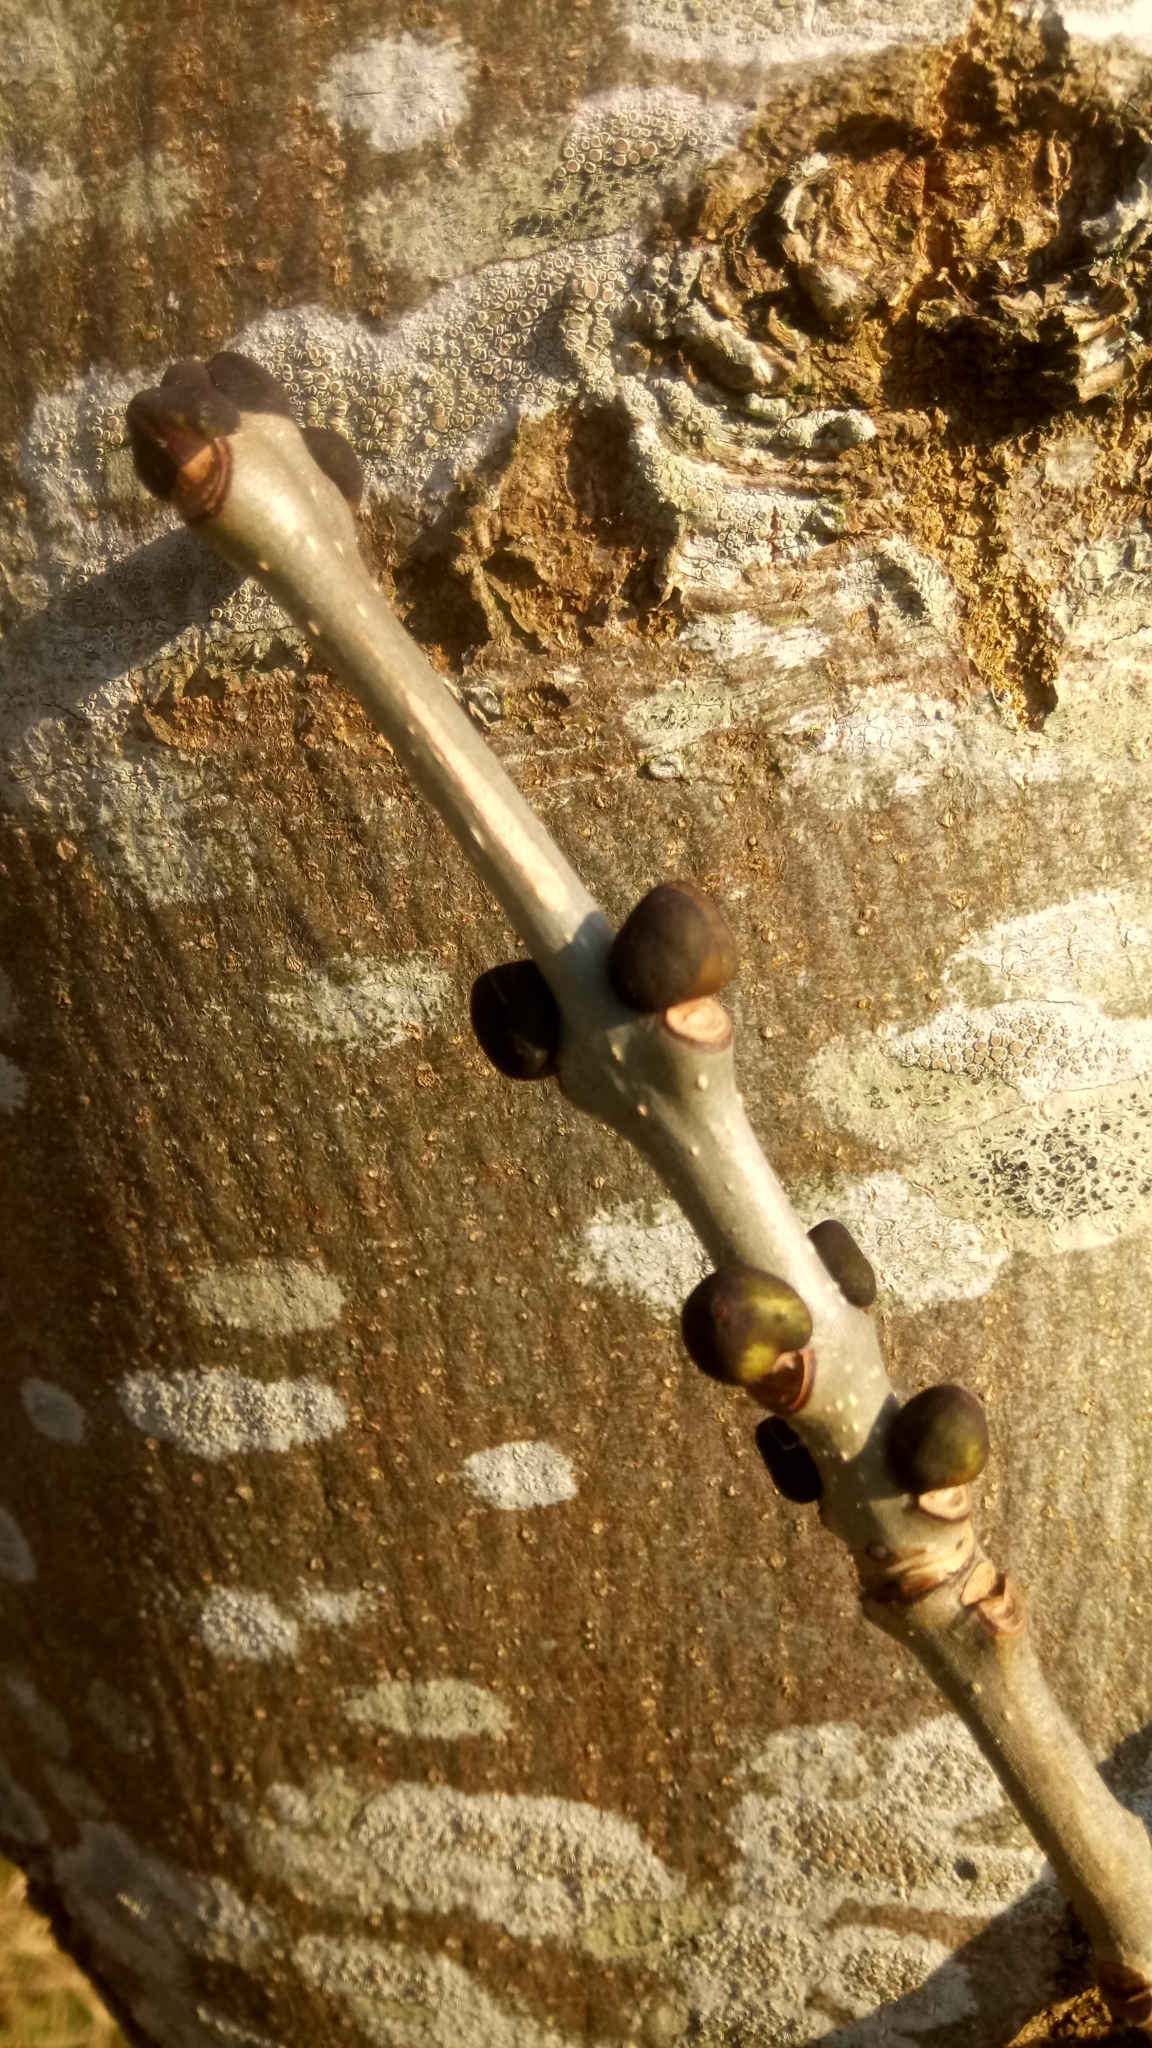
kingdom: Plantae
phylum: Tracheophyta
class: Magnoliopsida
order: Lamiales
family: Oleaceae
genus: Fraxinus
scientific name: Fraxinus excelsior
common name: European ash
